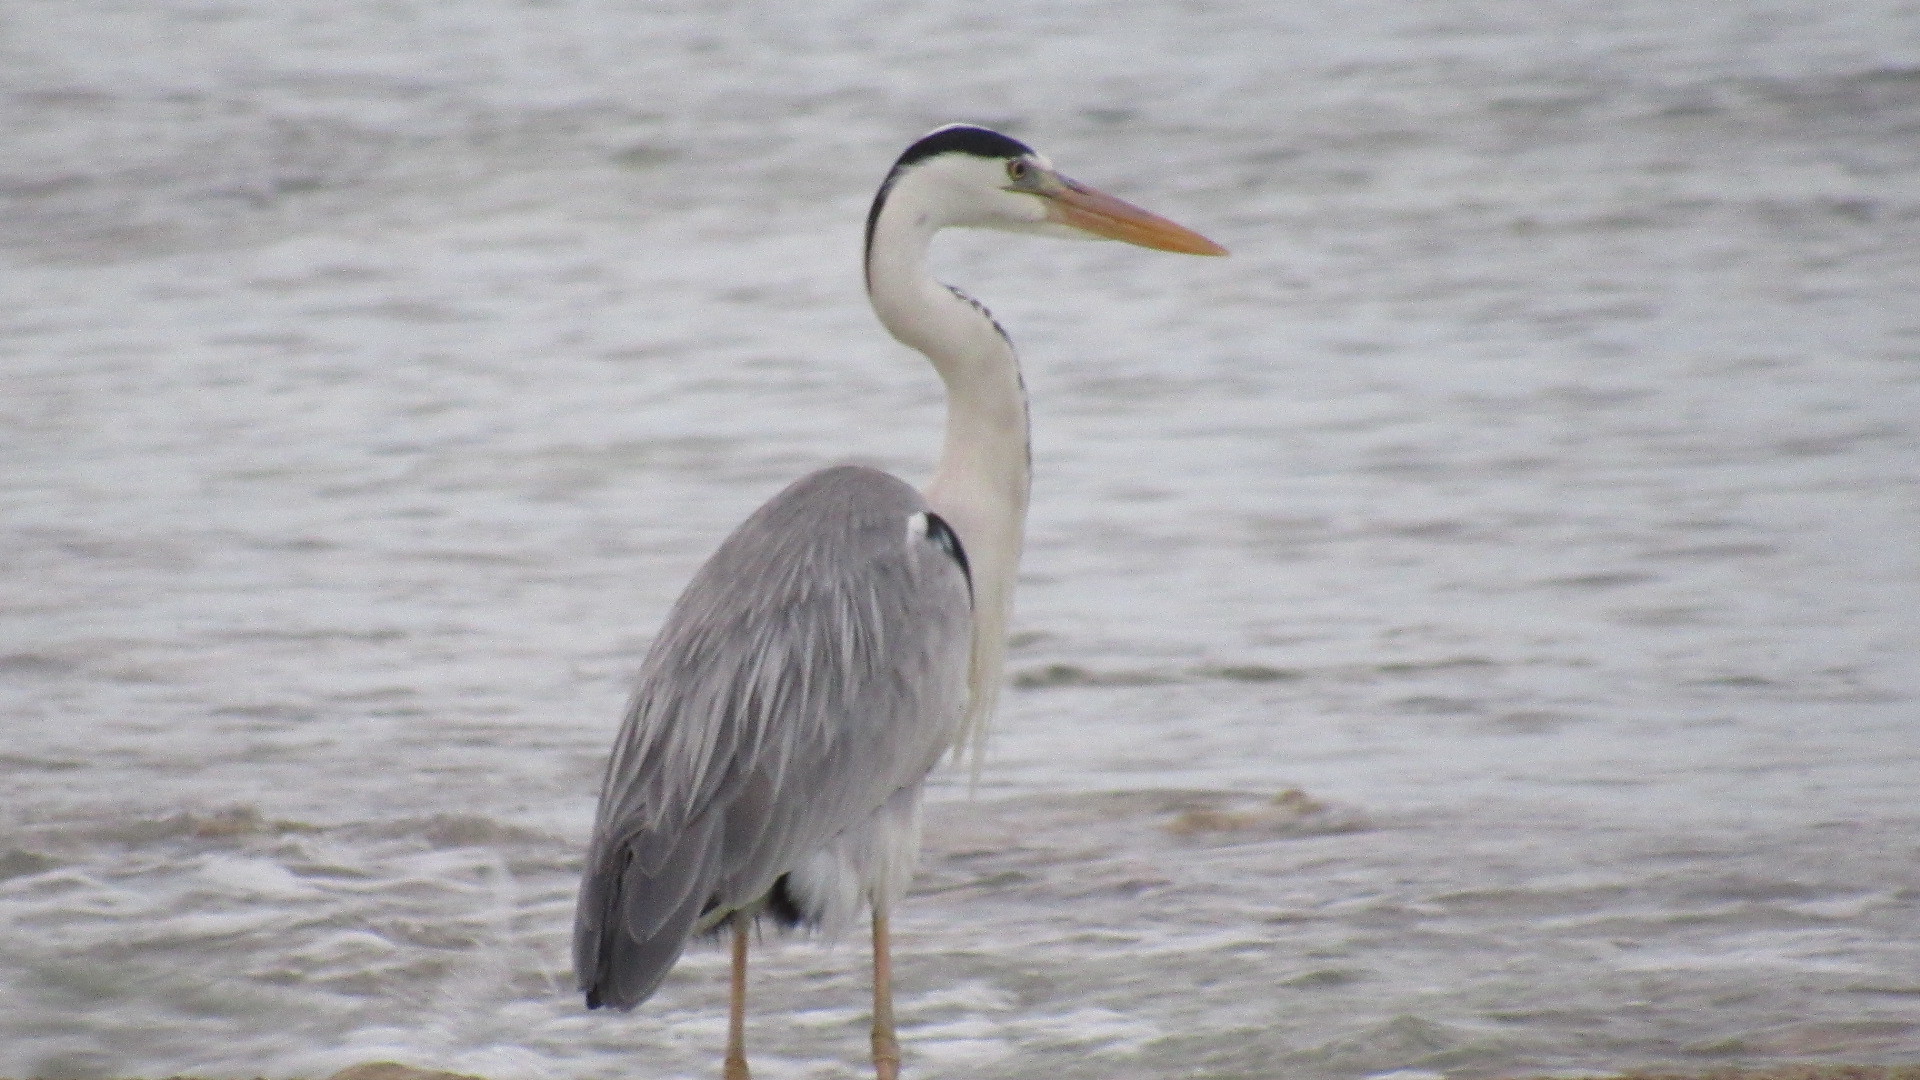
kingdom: Animalia
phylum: Chordata
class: Aves
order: Pelecaniformes
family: Ardeidae
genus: Ardea
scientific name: Ardea cinerea
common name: Grey heron
